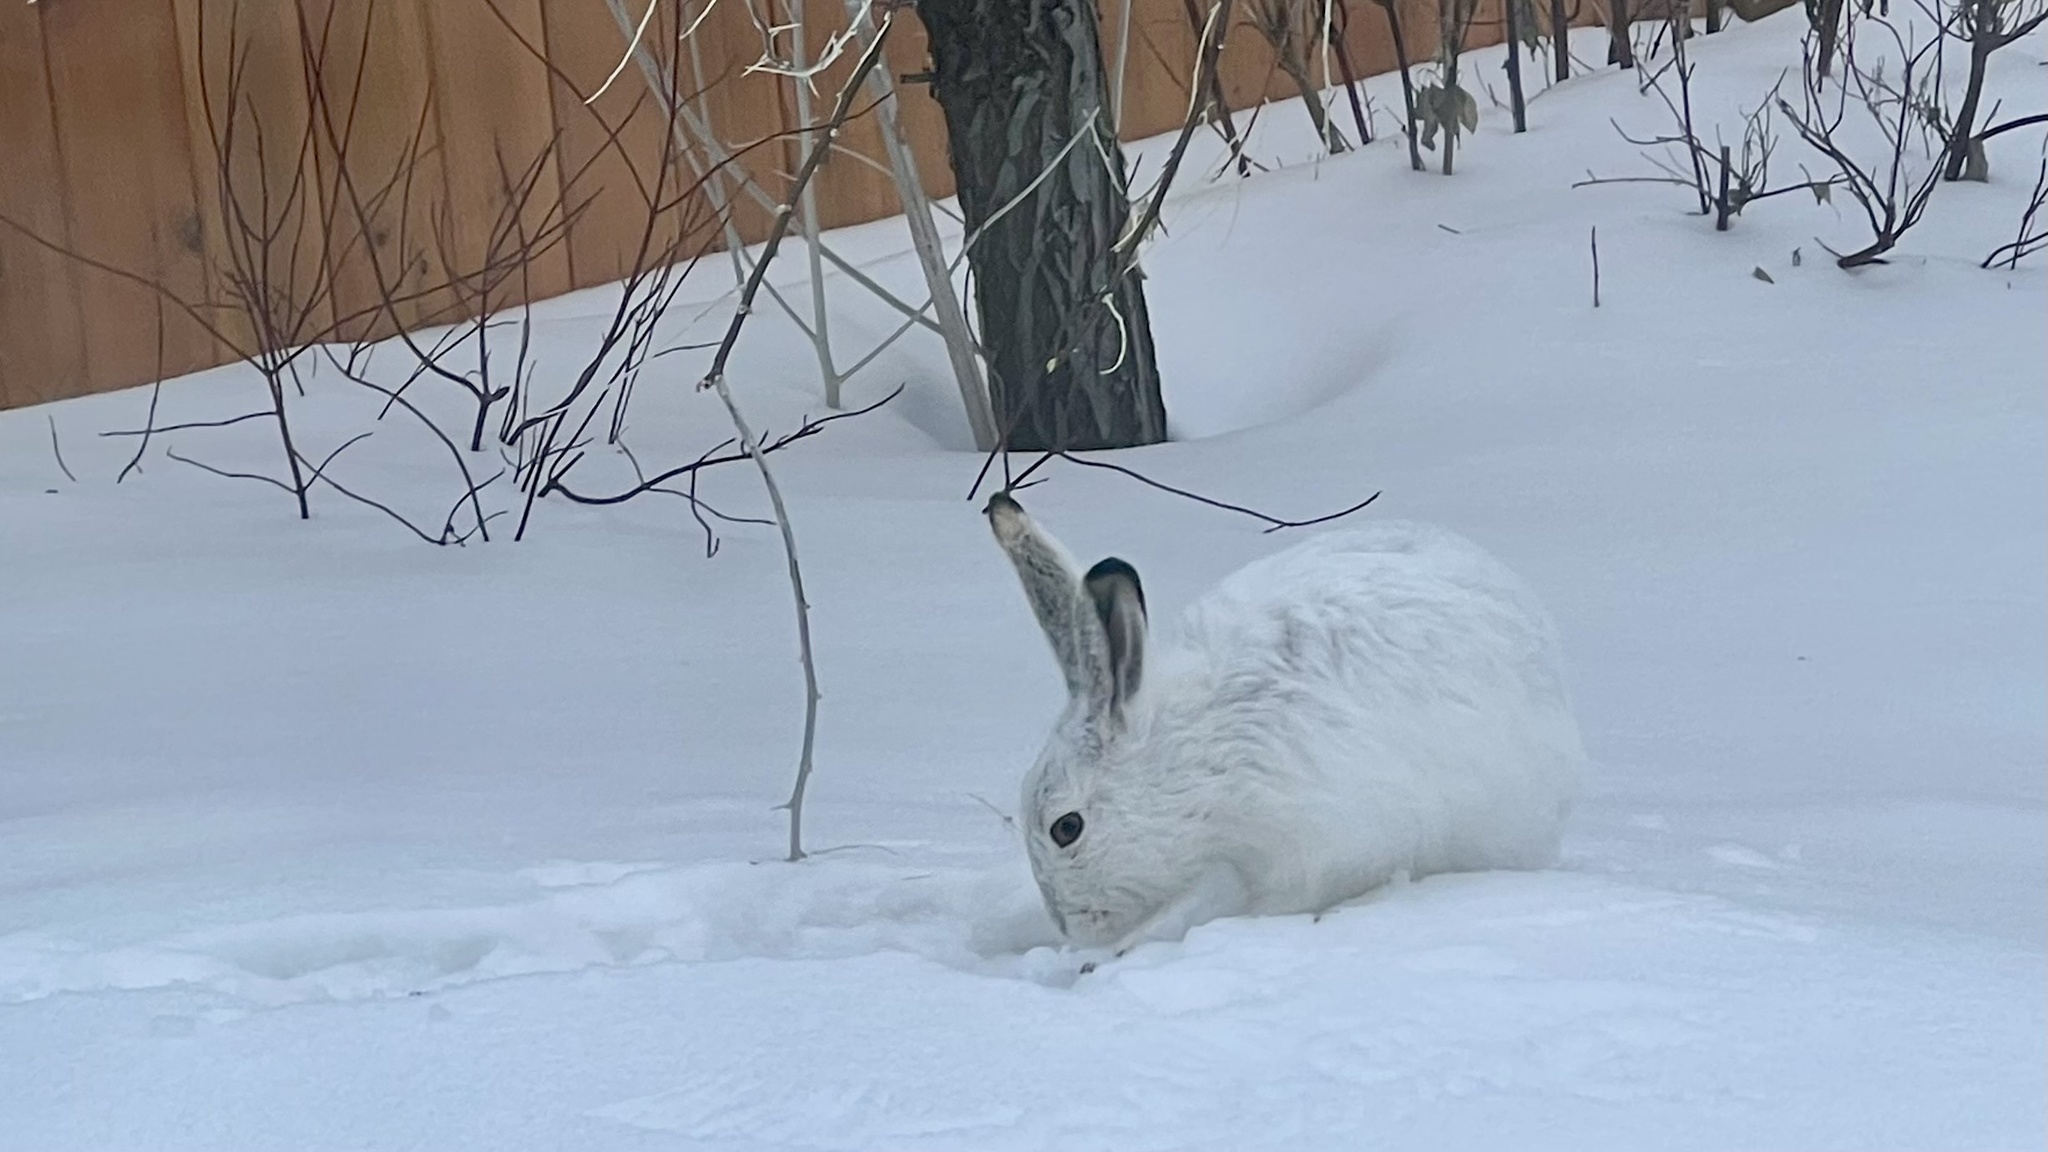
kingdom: Animalia
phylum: Chordata
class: Mammalia
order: Lagomorpha
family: Leporidae
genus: Lepus
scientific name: Lepus townsendii
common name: White-tailed jackrabbit
